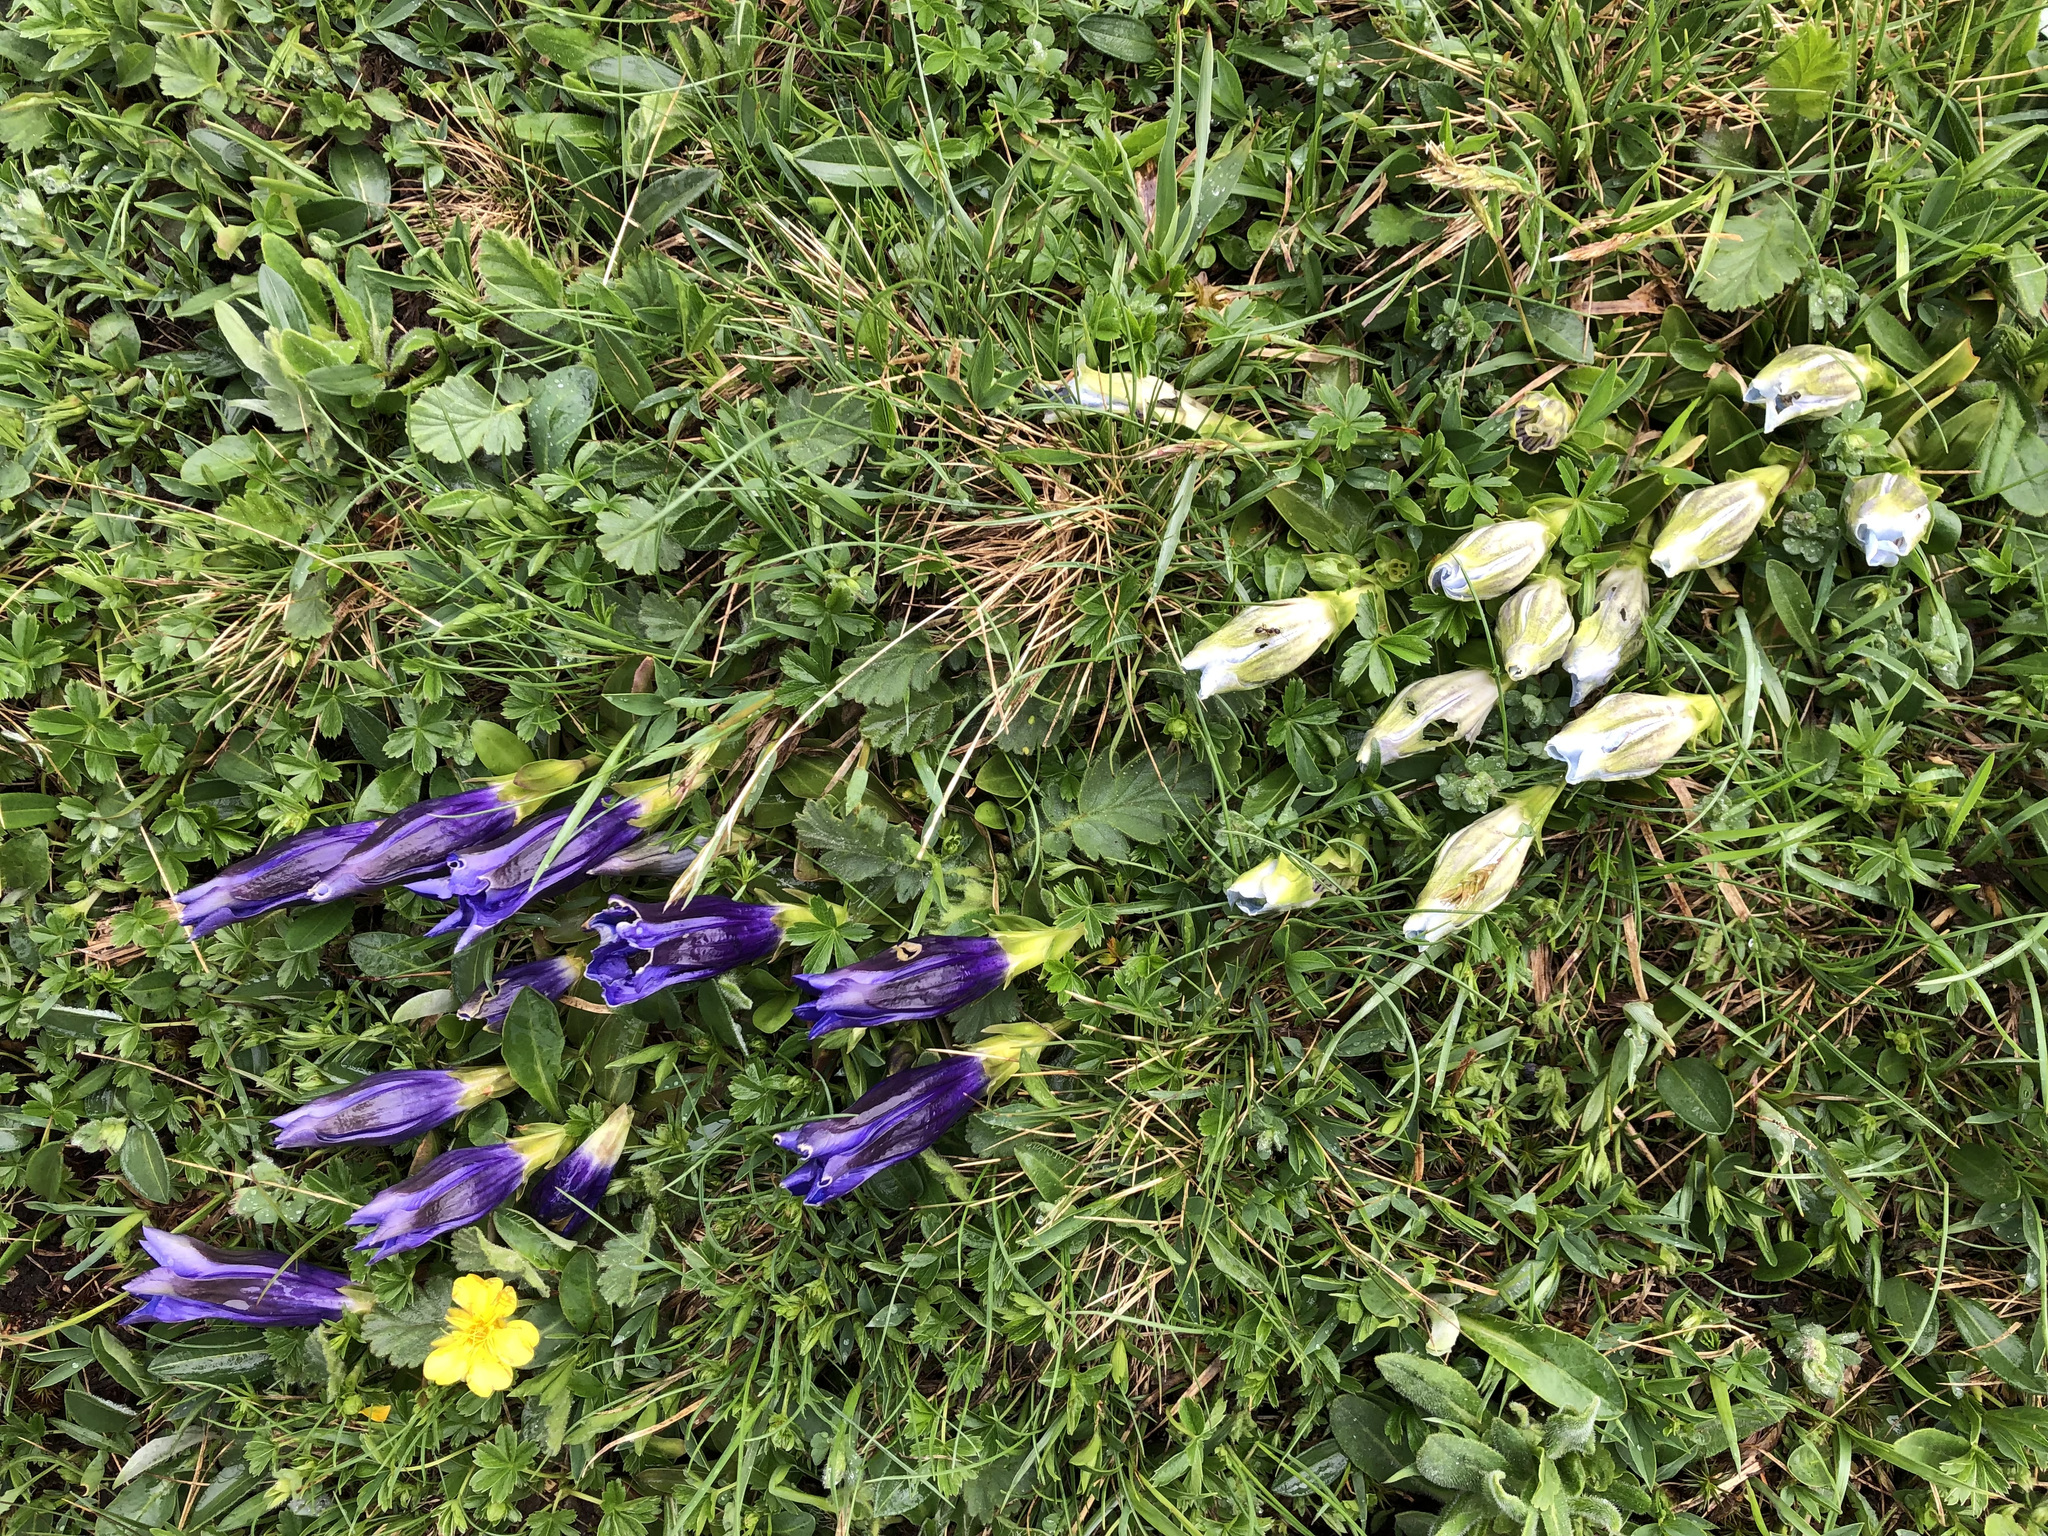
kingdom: Plantae
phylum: Tracheophyta
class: Magnoliopsida
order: Gentianales
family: Gentianaceae
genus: Gentiana
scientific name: Gentiana acaulis
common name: Trumpet gentian
